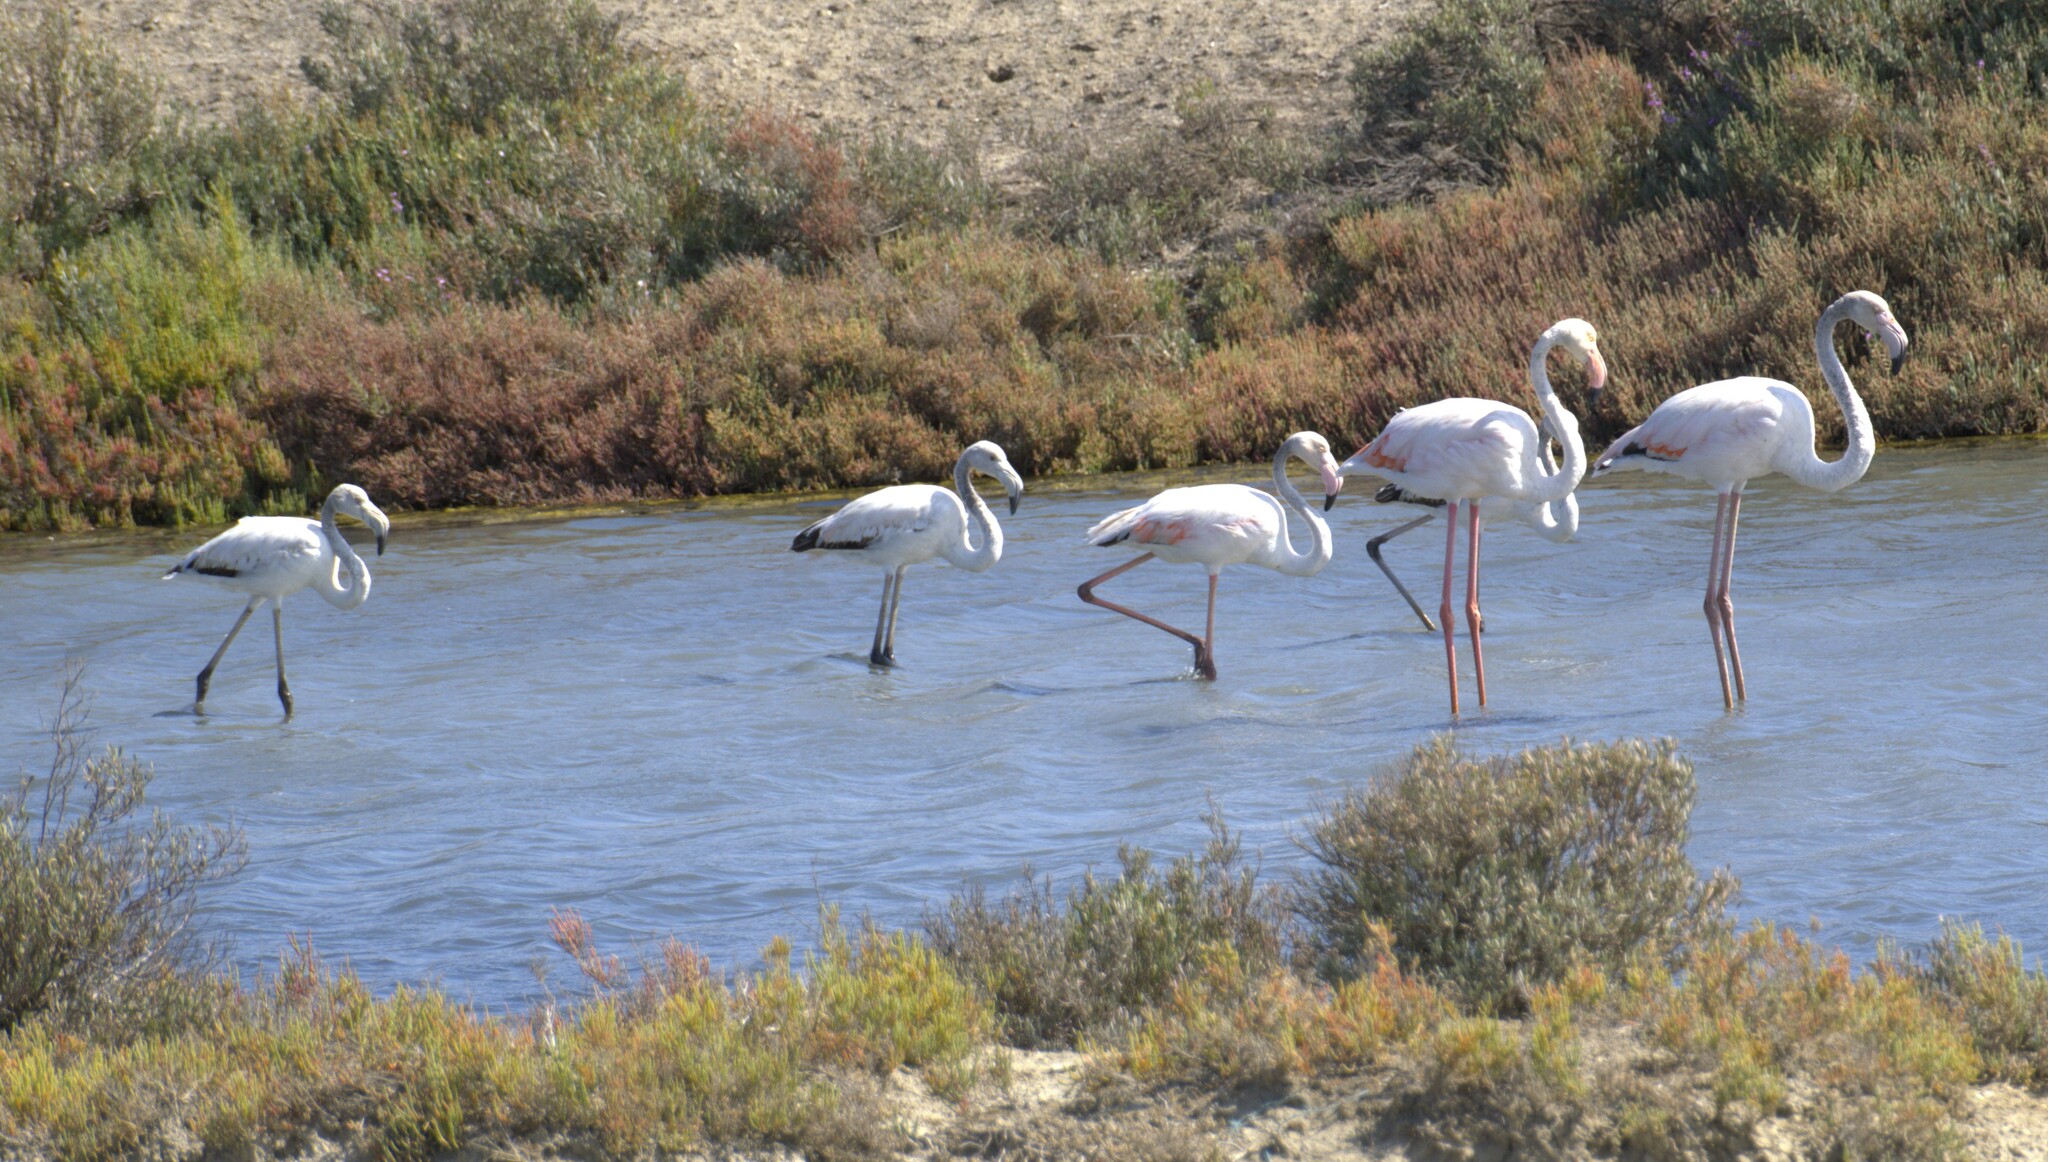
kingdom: Animalia
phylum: Chordata
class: Aves
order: Phoenicopteriformes
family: Phoenicopteridae
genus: Phoenicopterus
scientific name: Phoenicopterus roseus
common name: Greater flamingo
